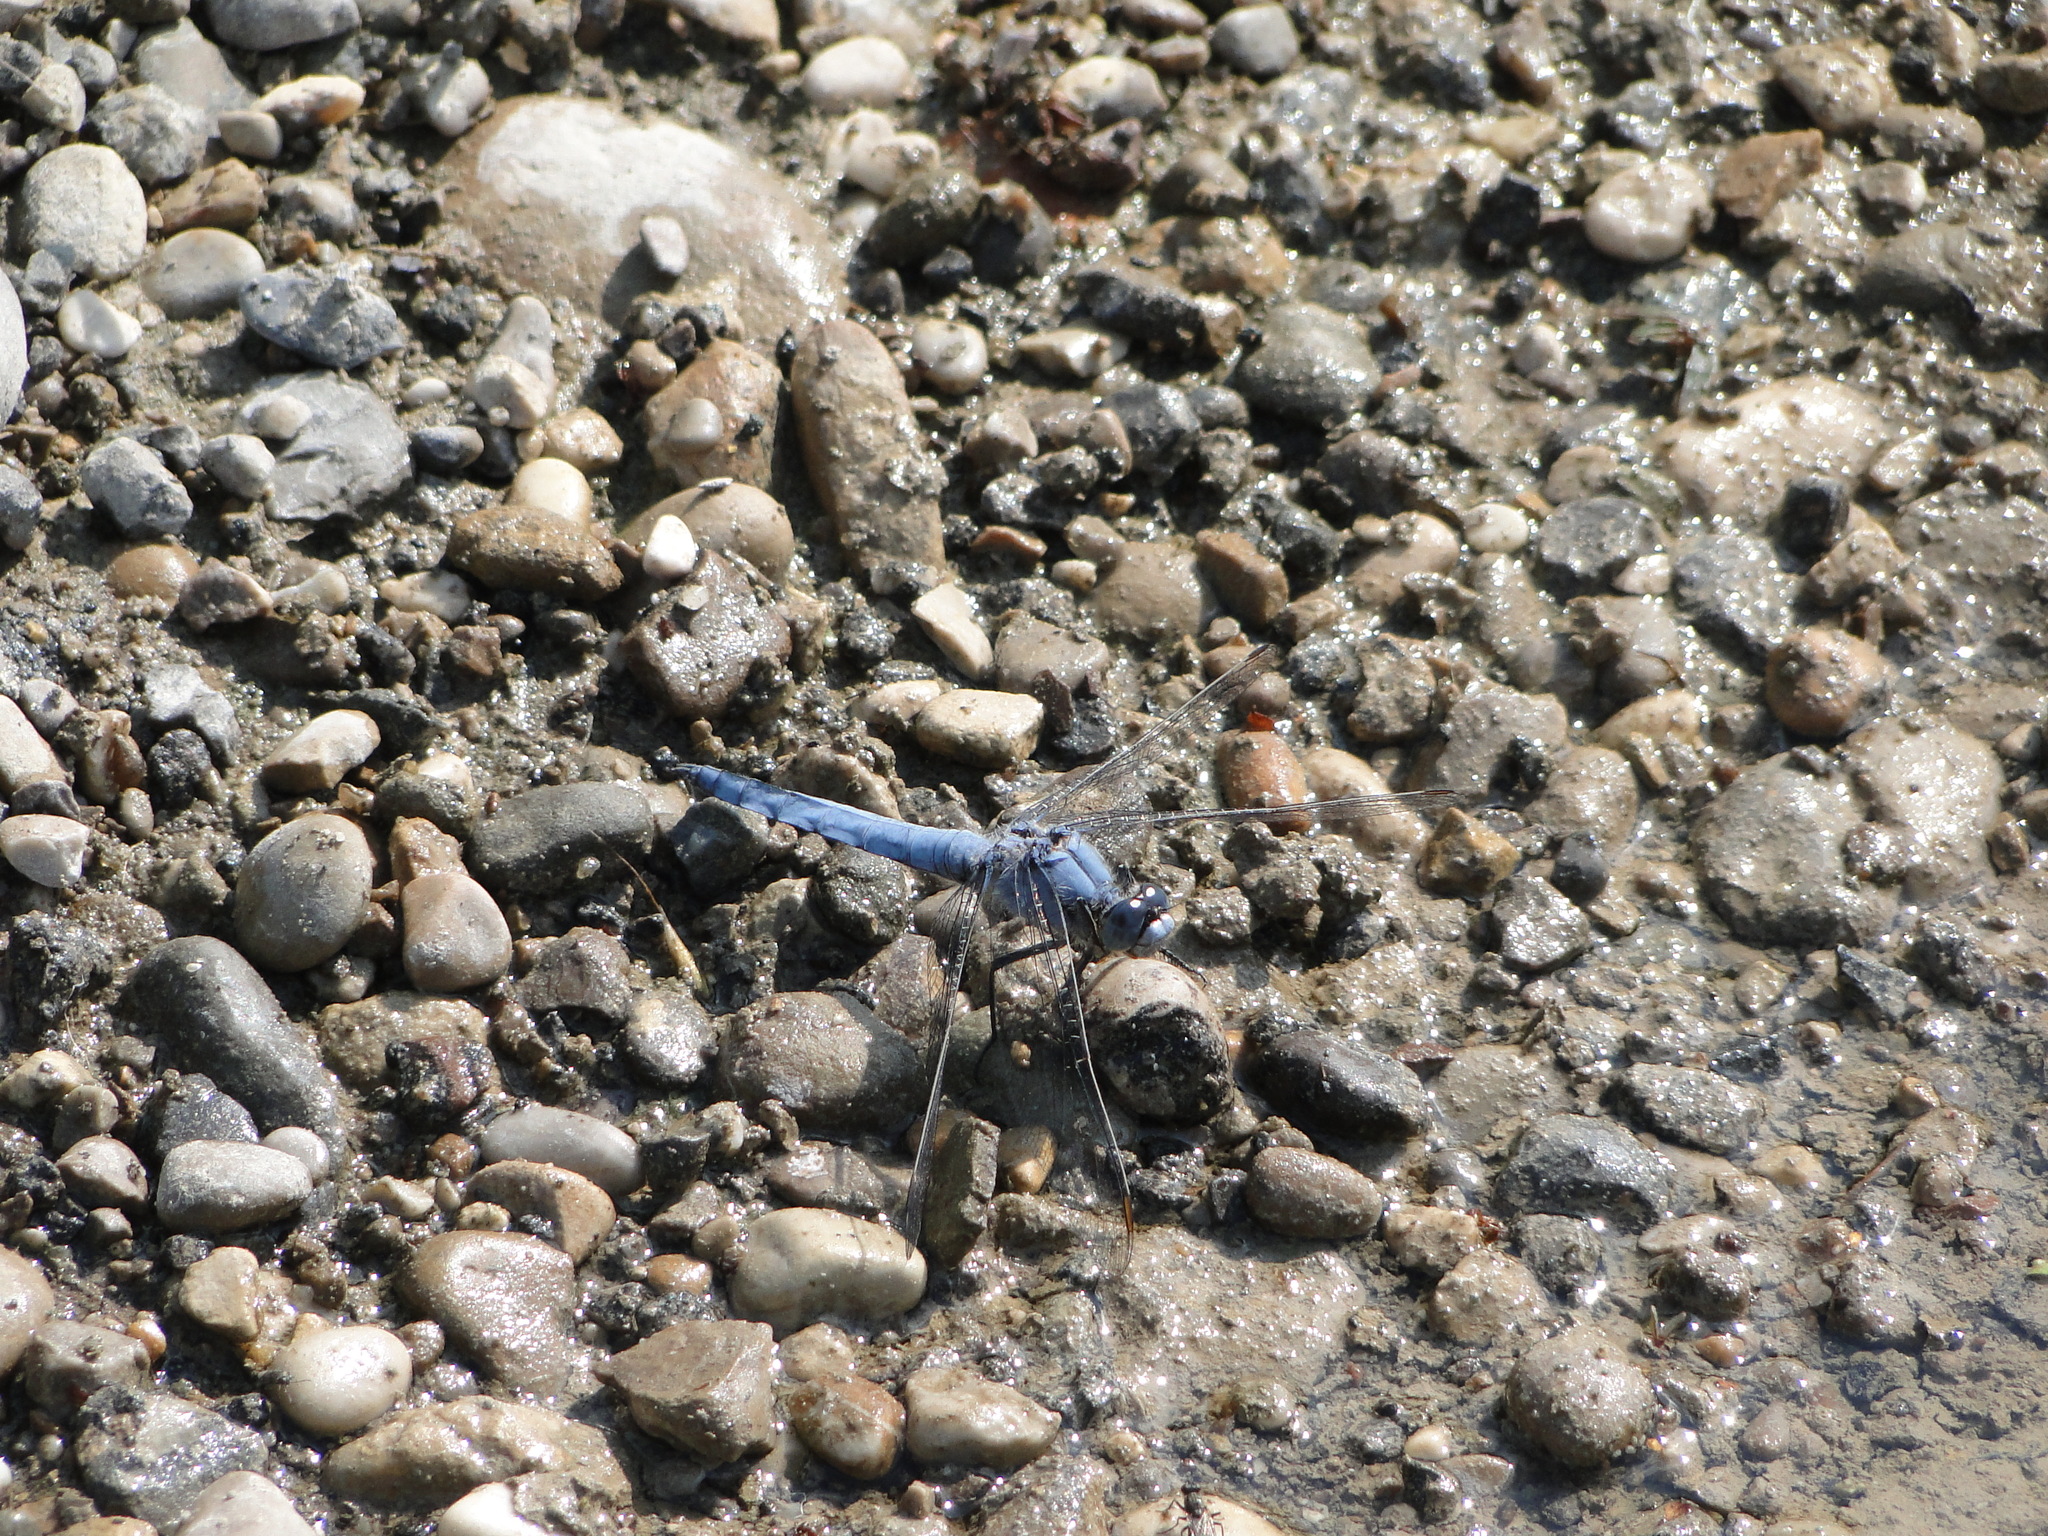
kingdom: Animalia
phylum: Arthropoda
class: Insecta
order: Odonata
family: Libellulidae
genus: Orthetrum
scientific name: Orthetrum brunneum
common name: Southern skimmer
